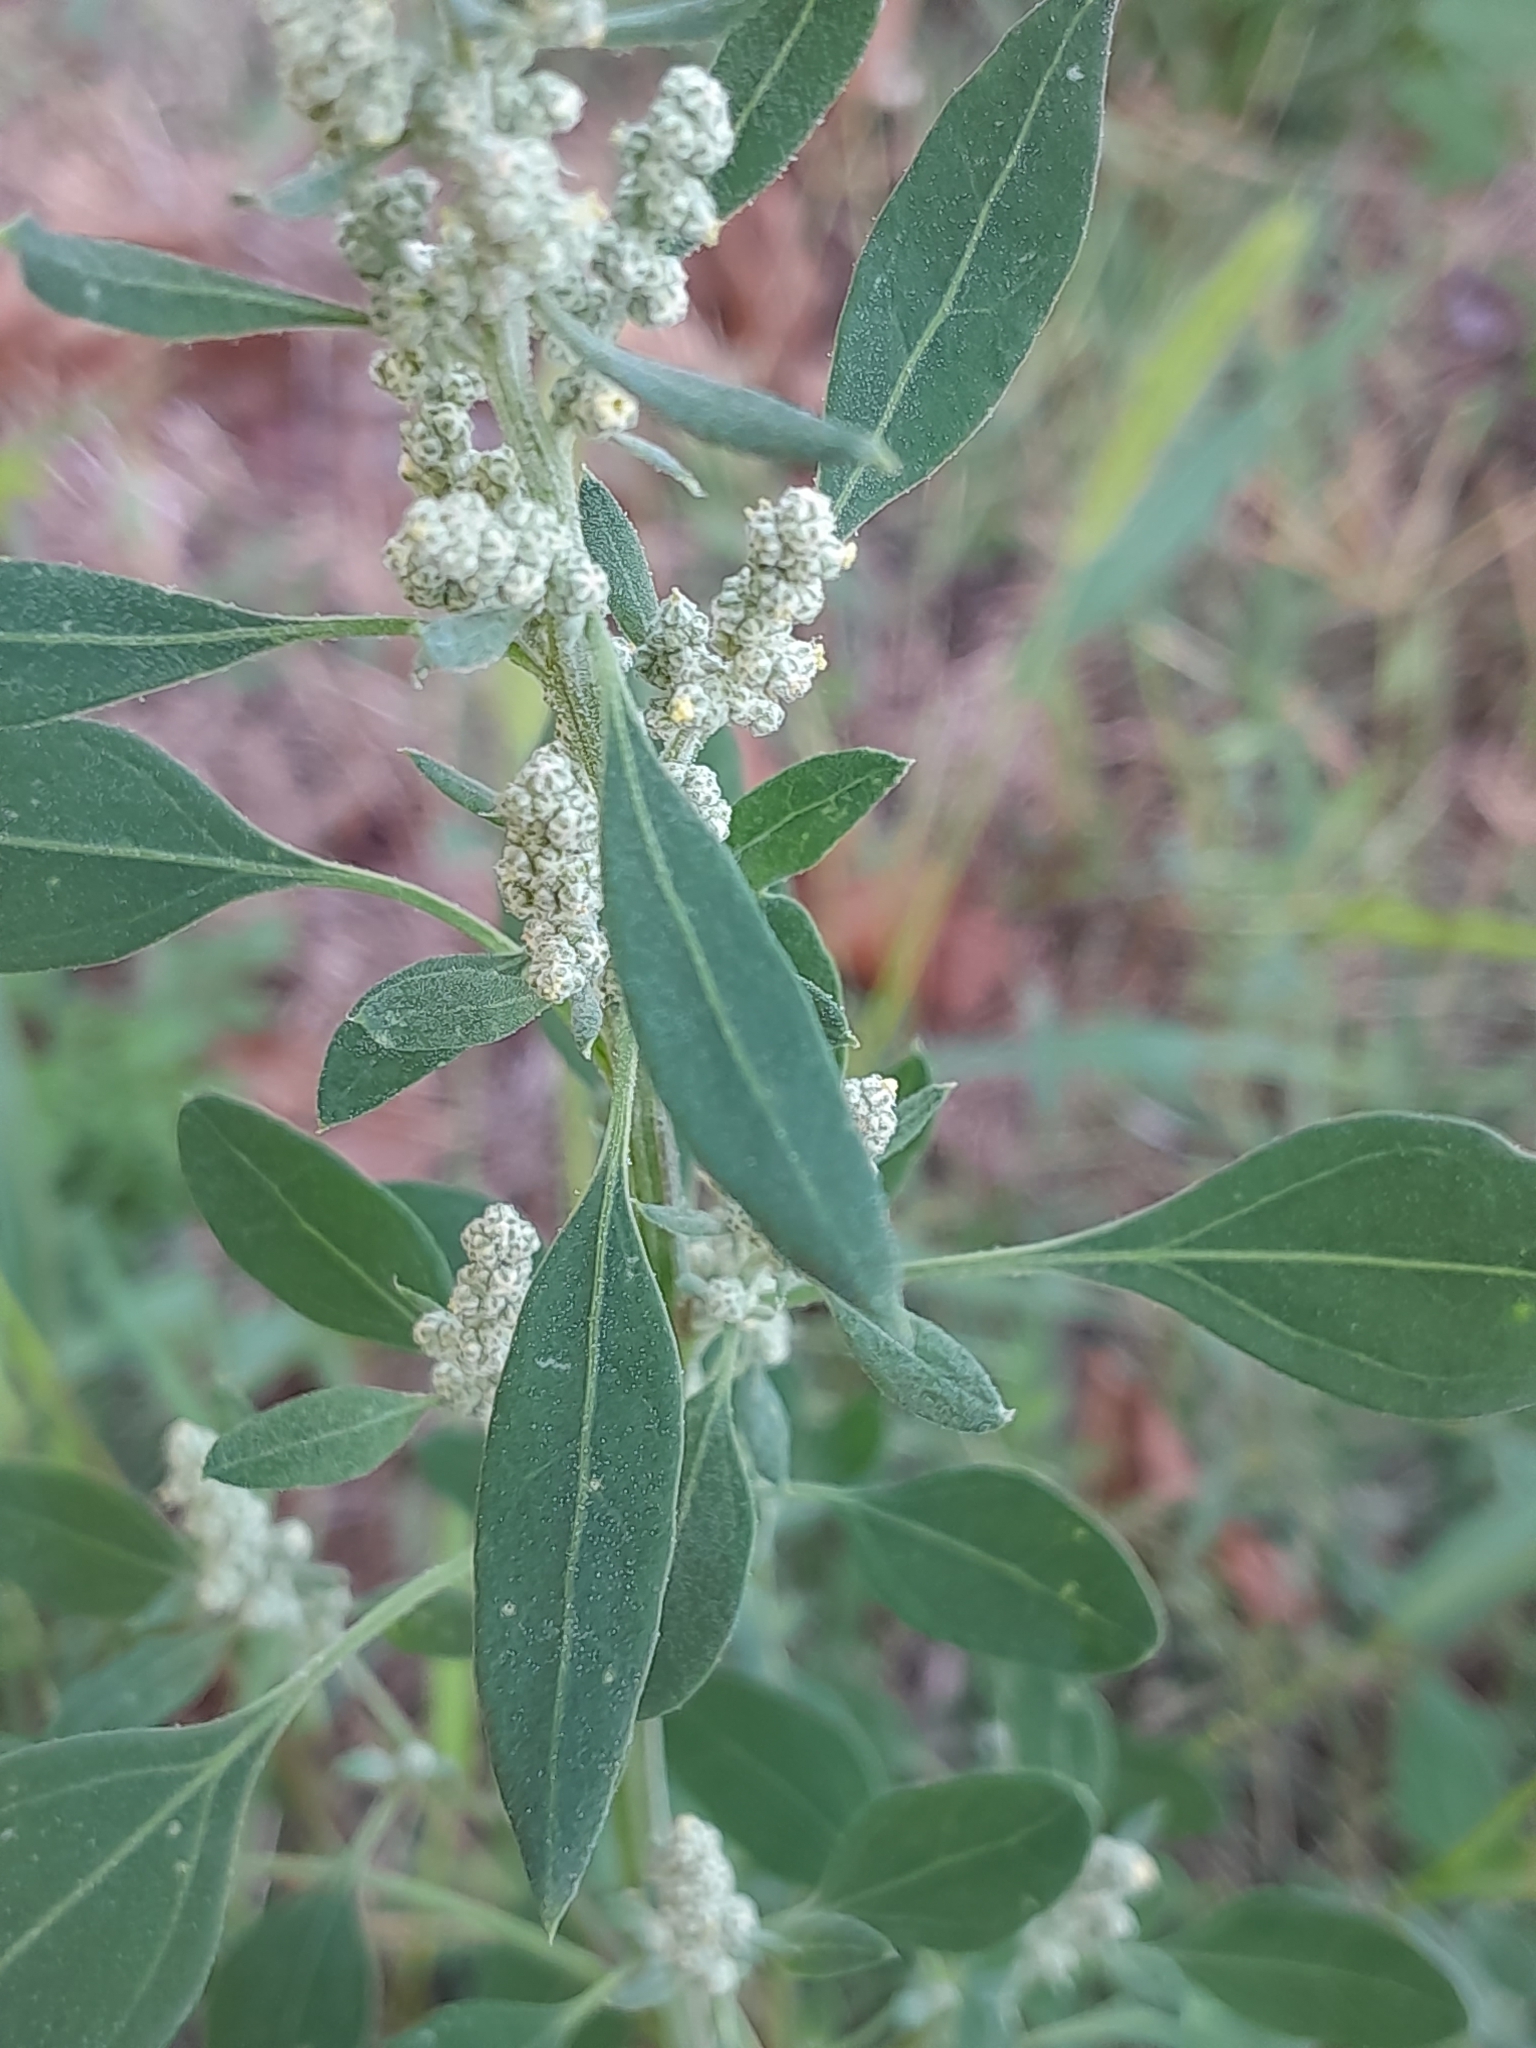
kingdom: Plantae
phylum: Tracheophyta
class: Magnoliopsida
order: Caryophyllales
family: Amaranthaceae
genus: Chenopodium
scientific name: Chenopodium album
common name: Fat-hen
